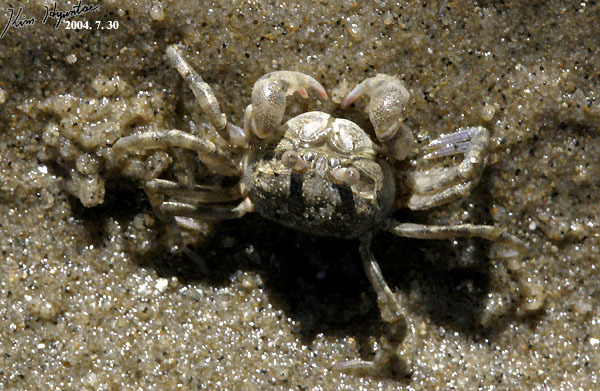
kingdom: Animalia
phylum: Arthropoda
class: Malacostraca
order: Decapoda
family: Dotillidae
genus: Scopimera
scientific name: Scopimera globosa
